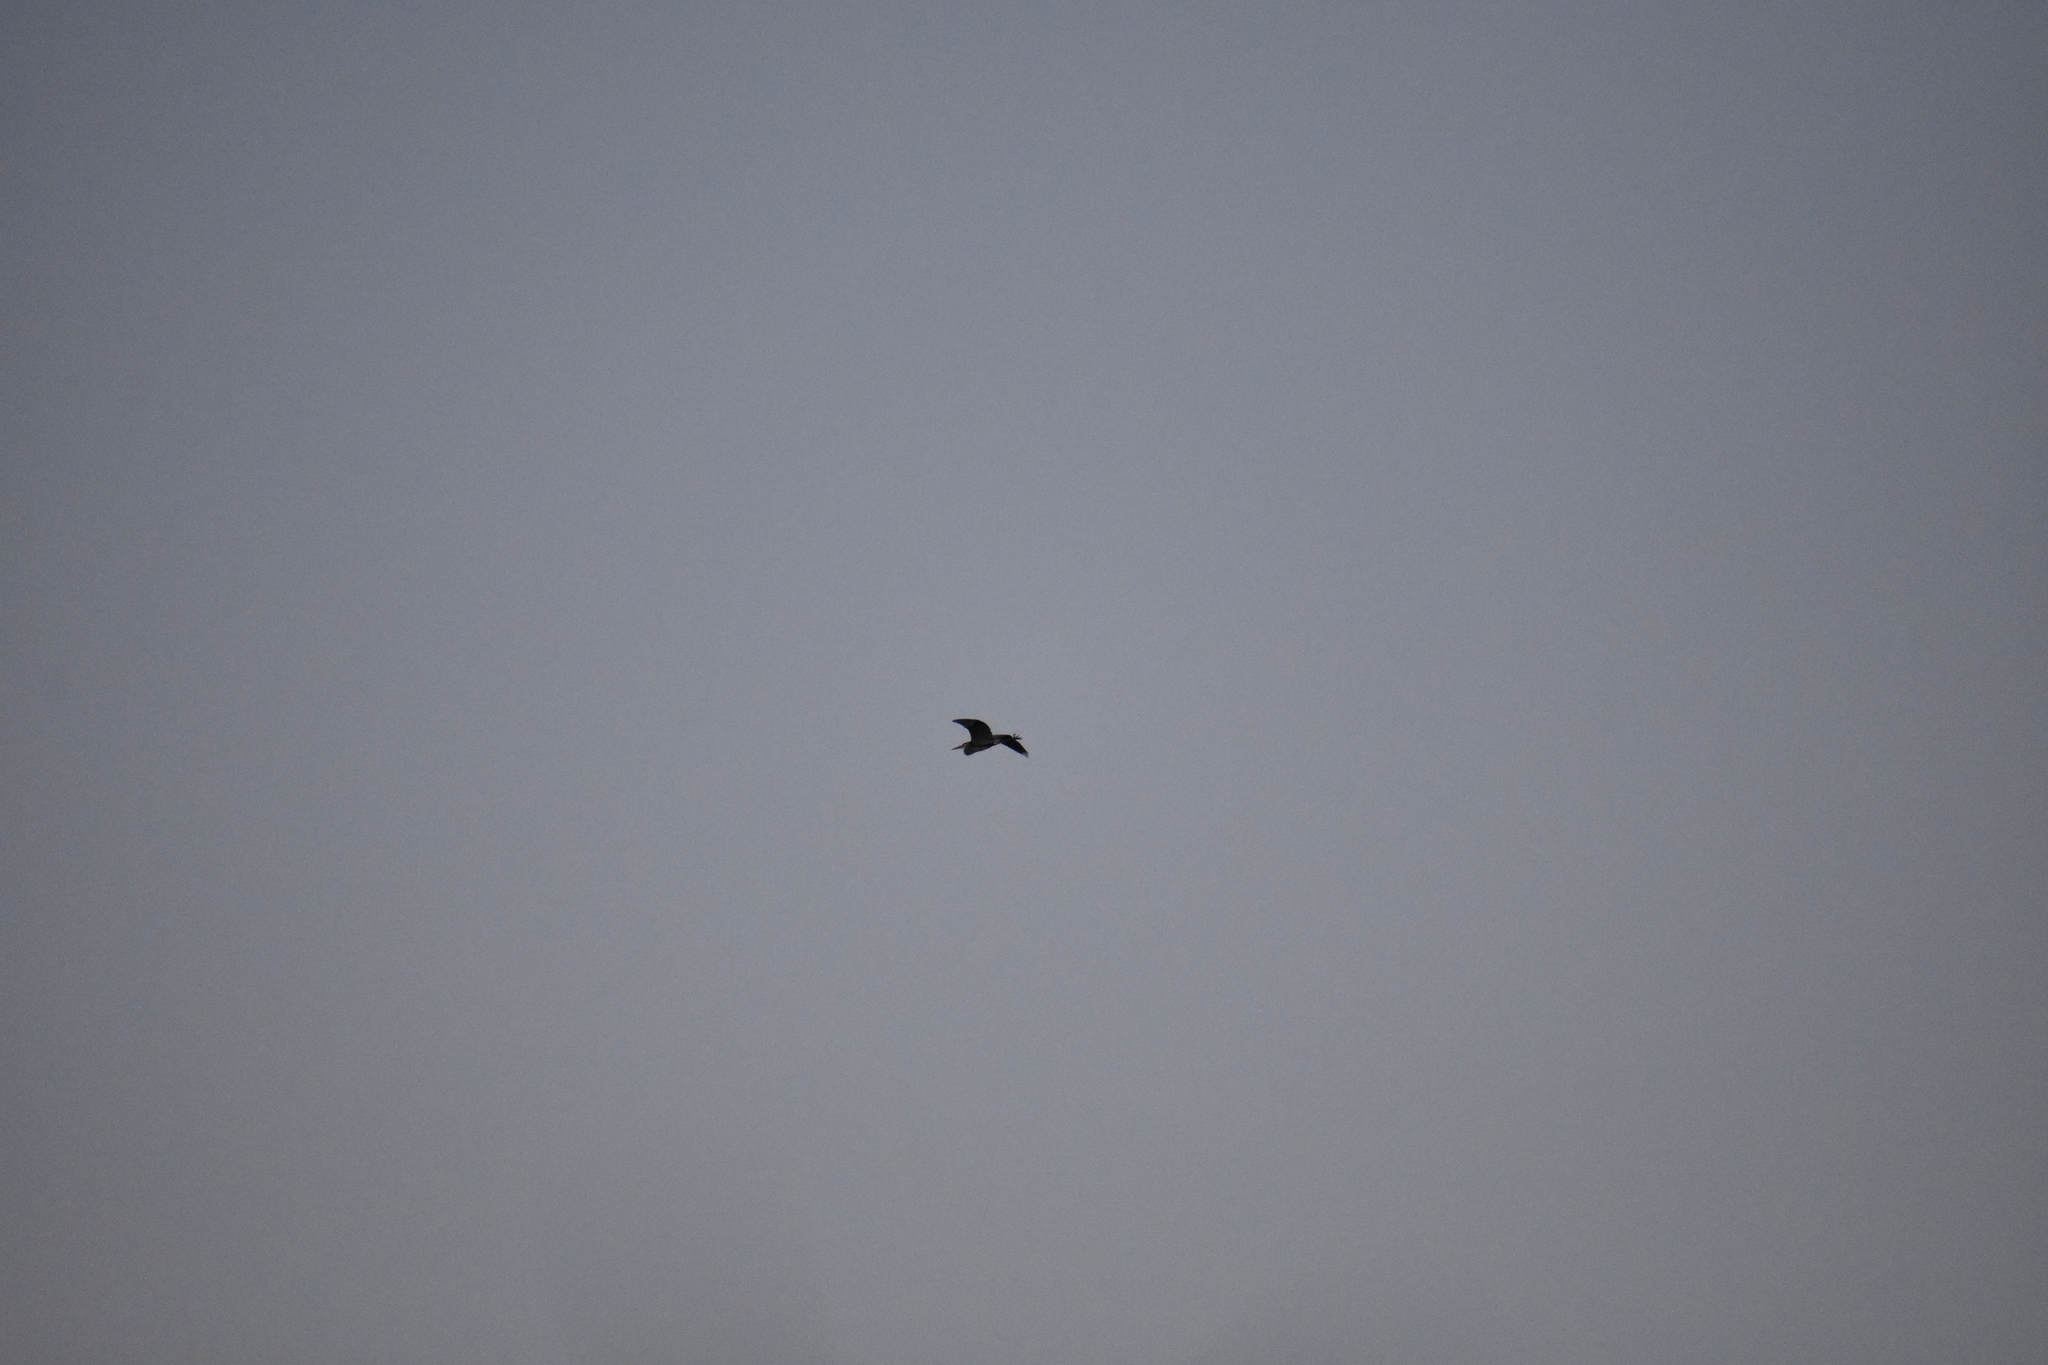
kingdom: Animalia
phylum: Chordata
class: Aves
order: Pelecaniformes
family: Ardeidae
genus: Ardea
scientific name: Ardea herodias
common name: Great blue heron
